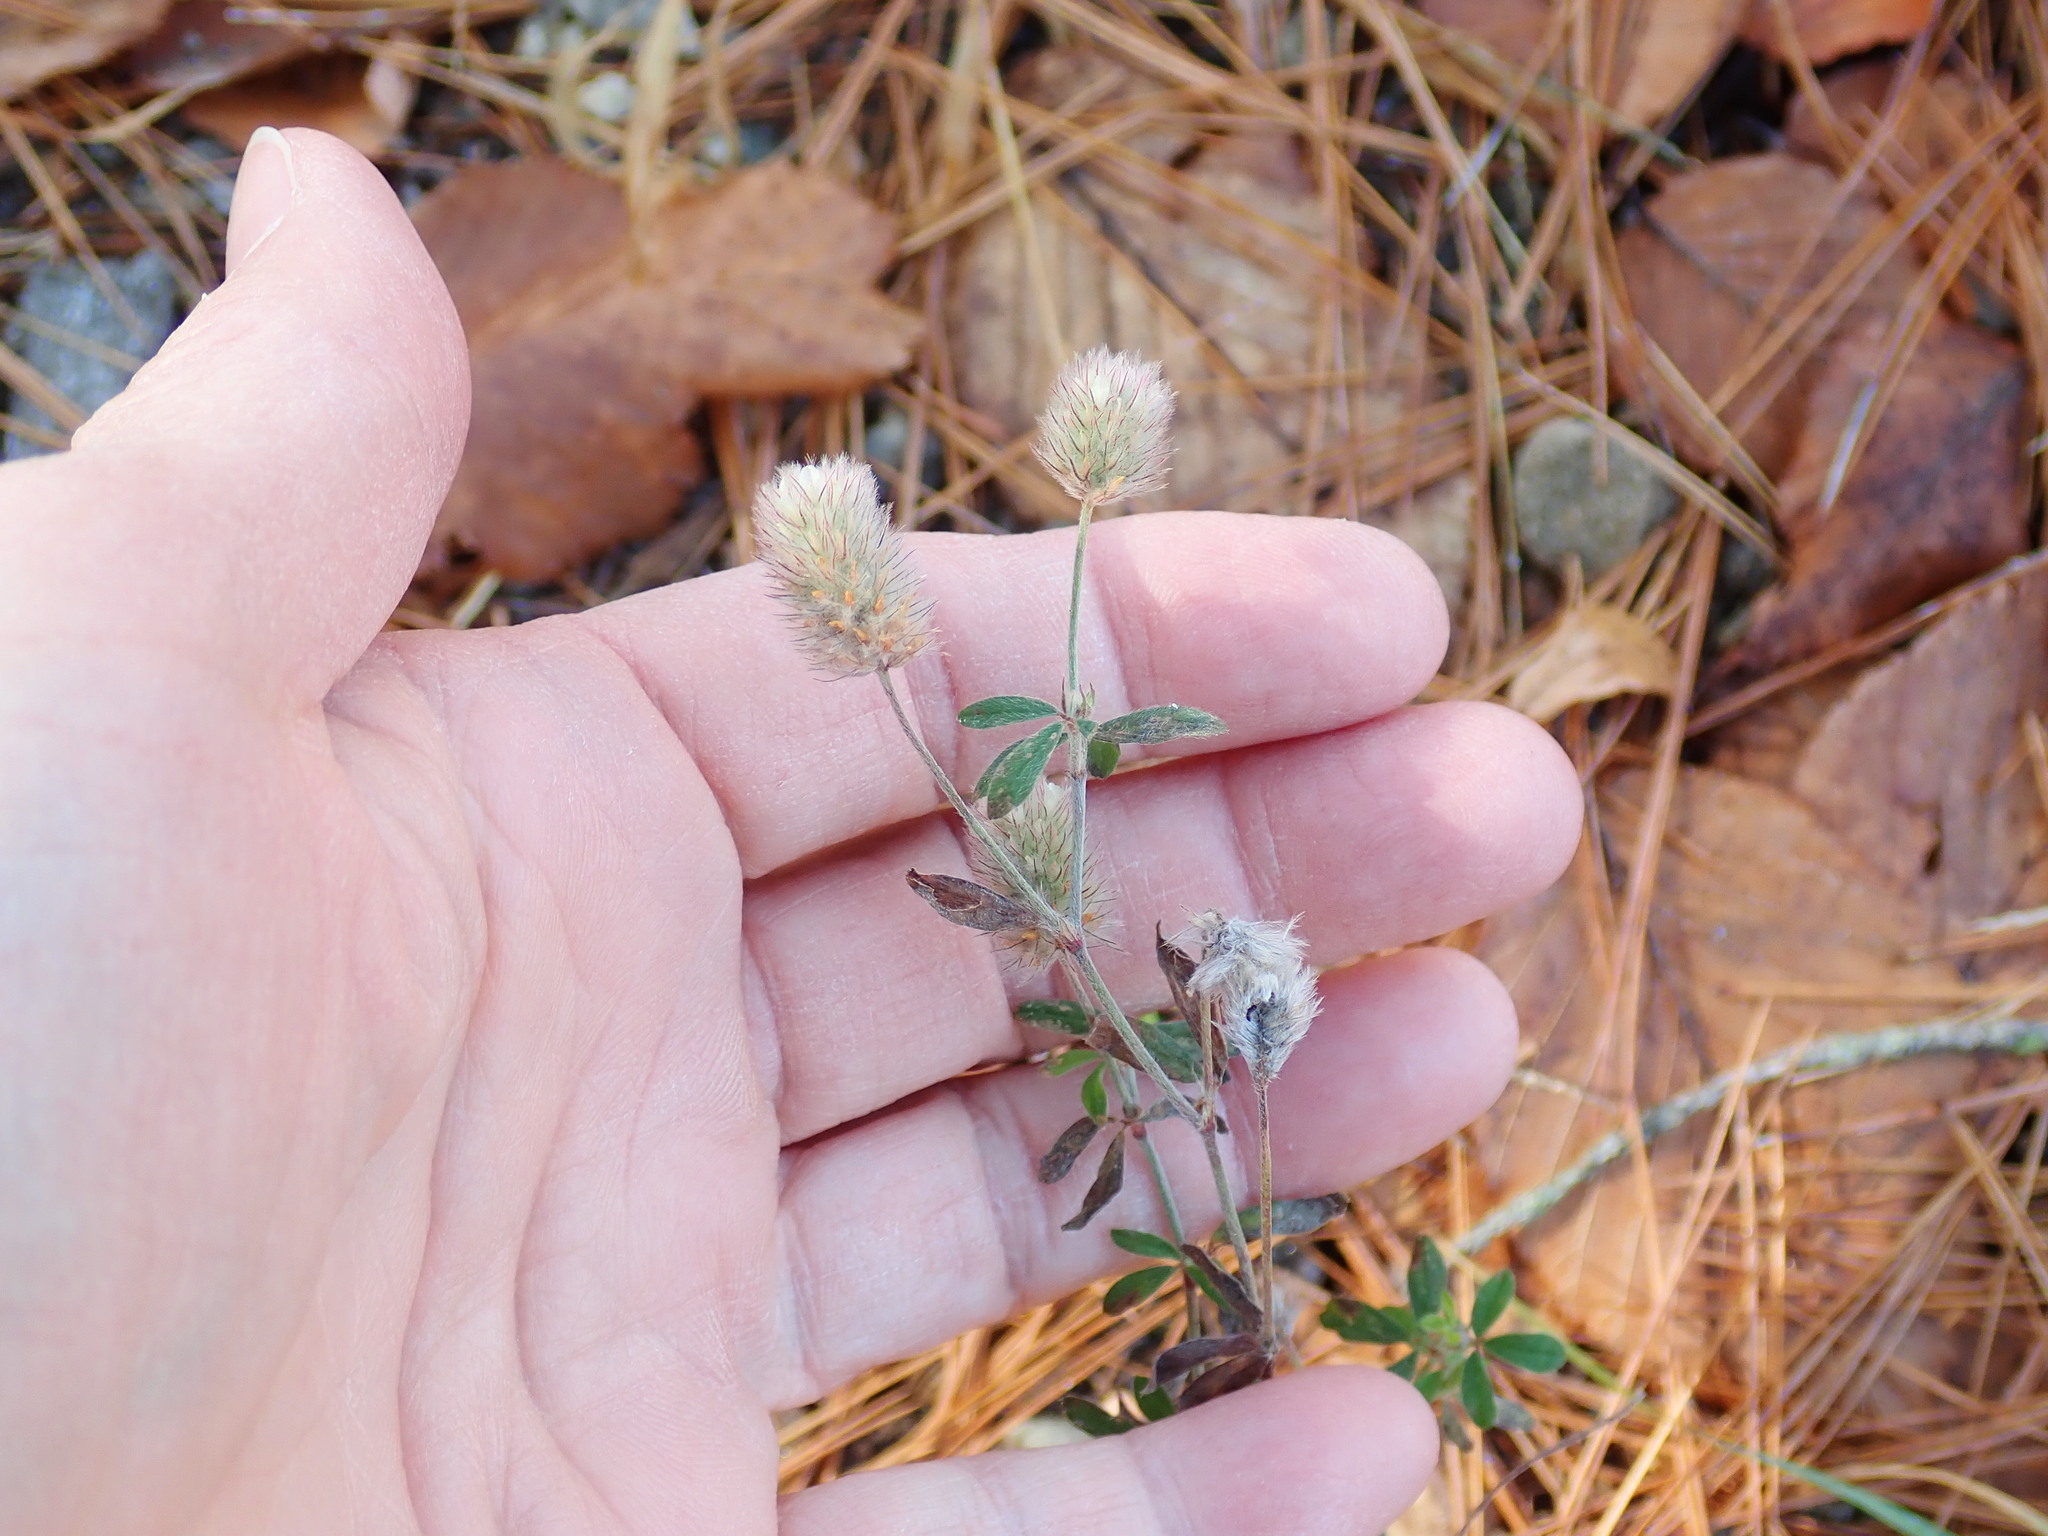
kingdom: Plantae
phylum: Tracheophyta
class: Magnoliopsida
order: Fabales
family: Fabaceae
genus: Trifolium
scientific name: Trifolium arvense
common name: Hare's-foot clover
